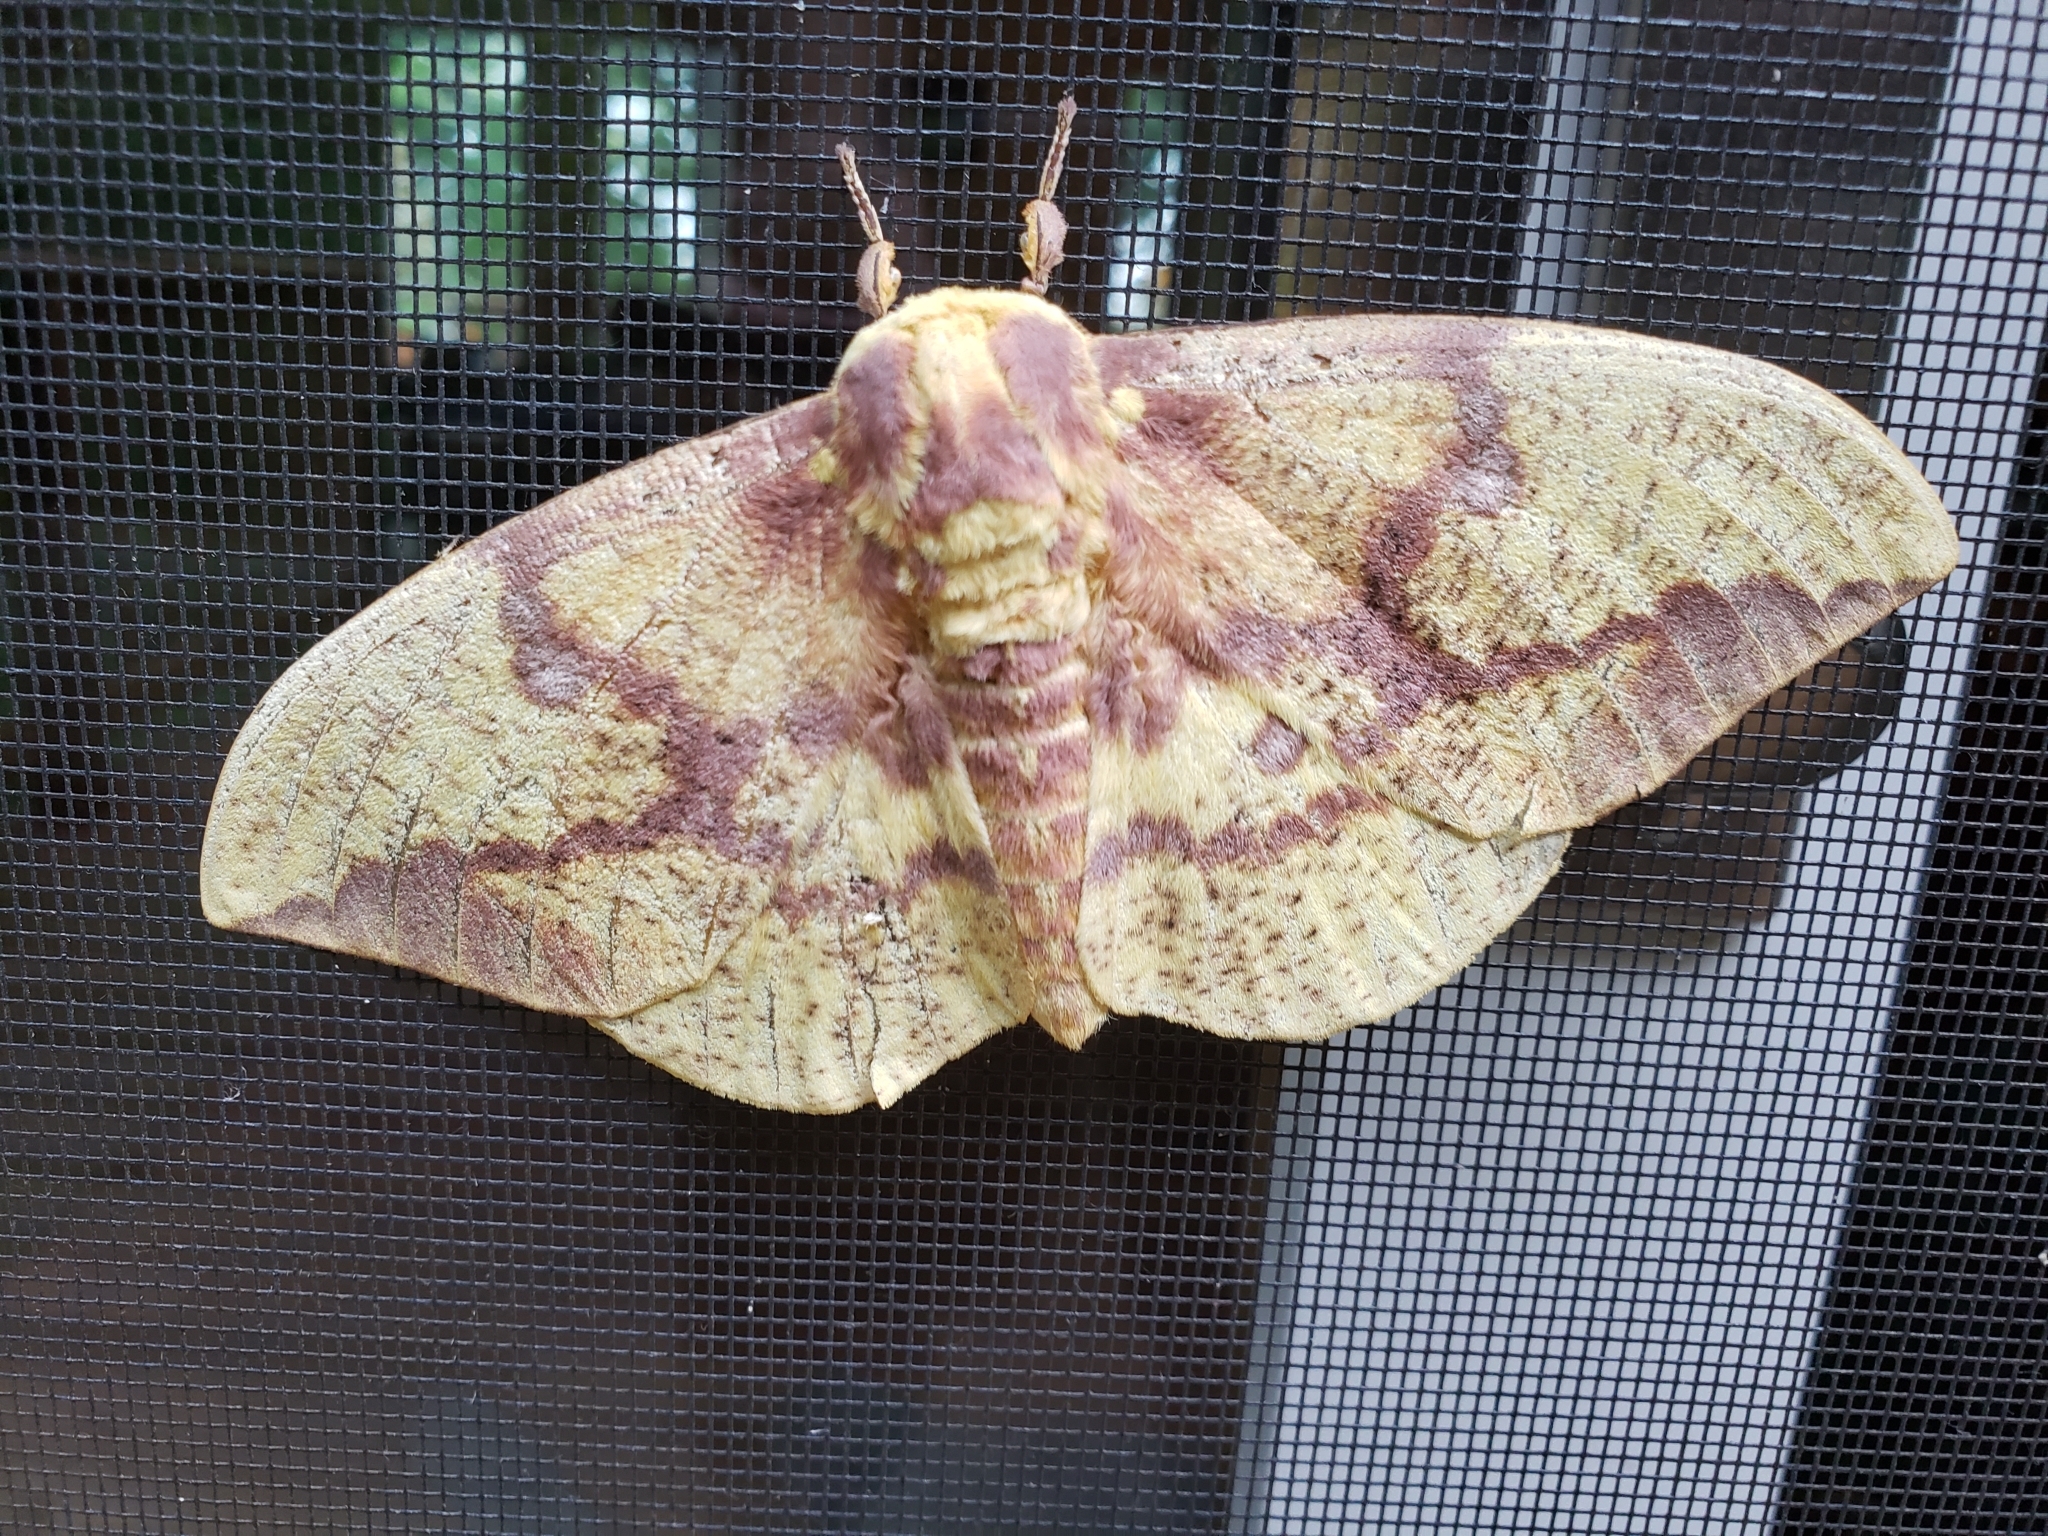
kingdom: Animalia
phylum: Arthropoda
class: Insecta
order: Lepidoptera
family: Saturniidae
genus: Eacles
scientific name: Eacles imperialis
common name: Imperial moth
